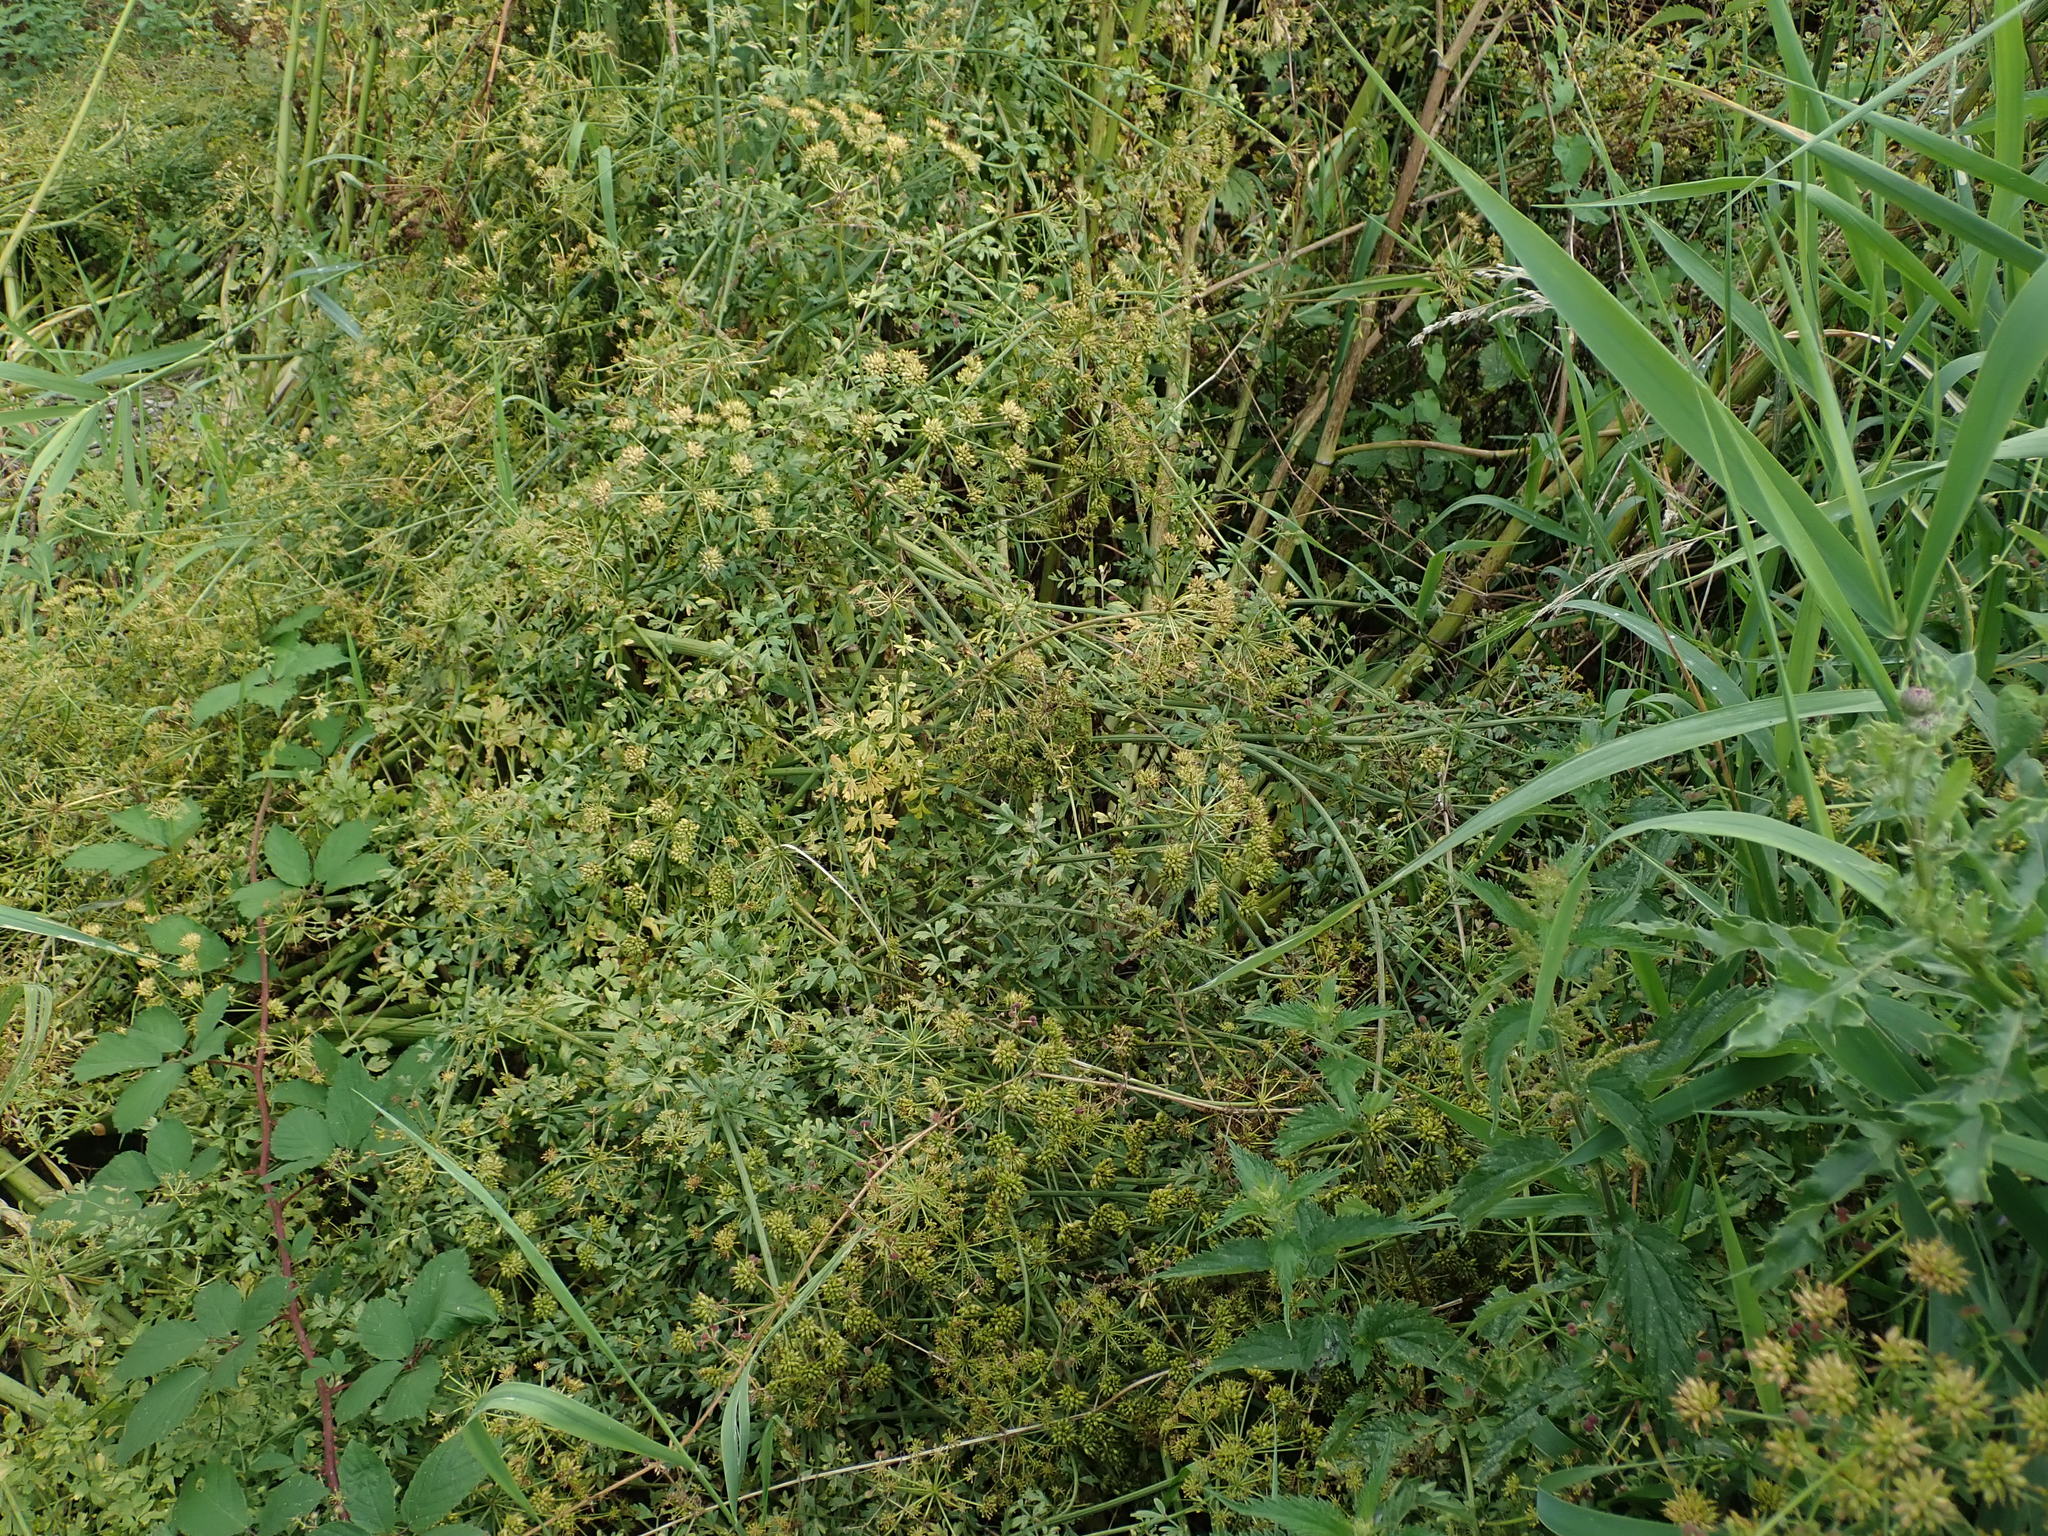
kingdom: Plantae
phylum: Tracheophyta
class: Magnoliopsida
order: Apiales
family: Apiaceae
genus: Oenanthe
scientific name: Oenanthe crocata
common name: Hemlock water-dropwort
